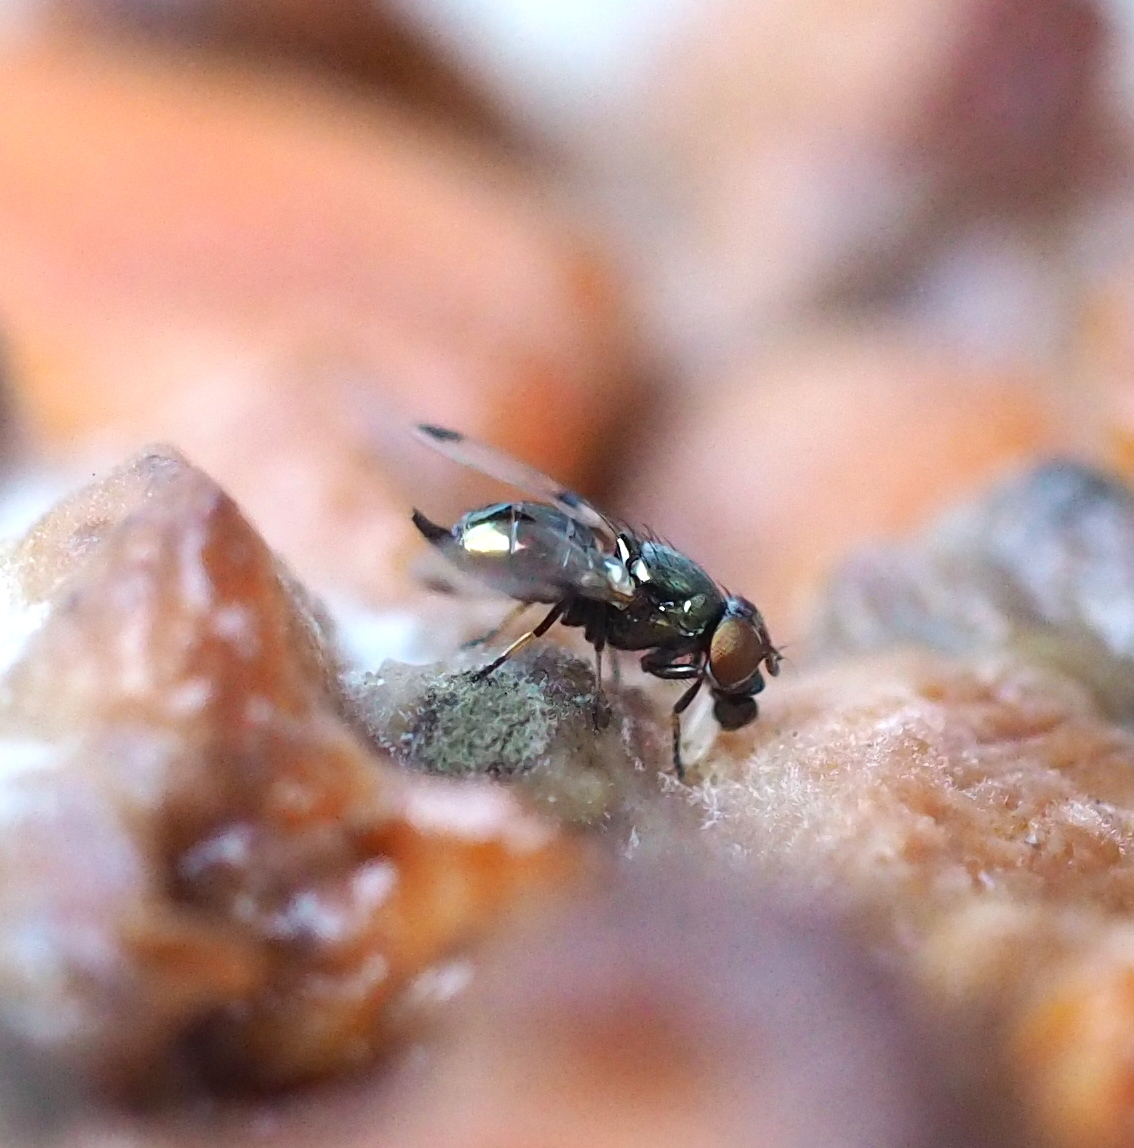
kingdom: Animalia
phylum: Arthropoda
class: Insecta
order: Diptera
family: Ulidiidae
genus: Euxesta
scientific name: Euxesta pechumani
